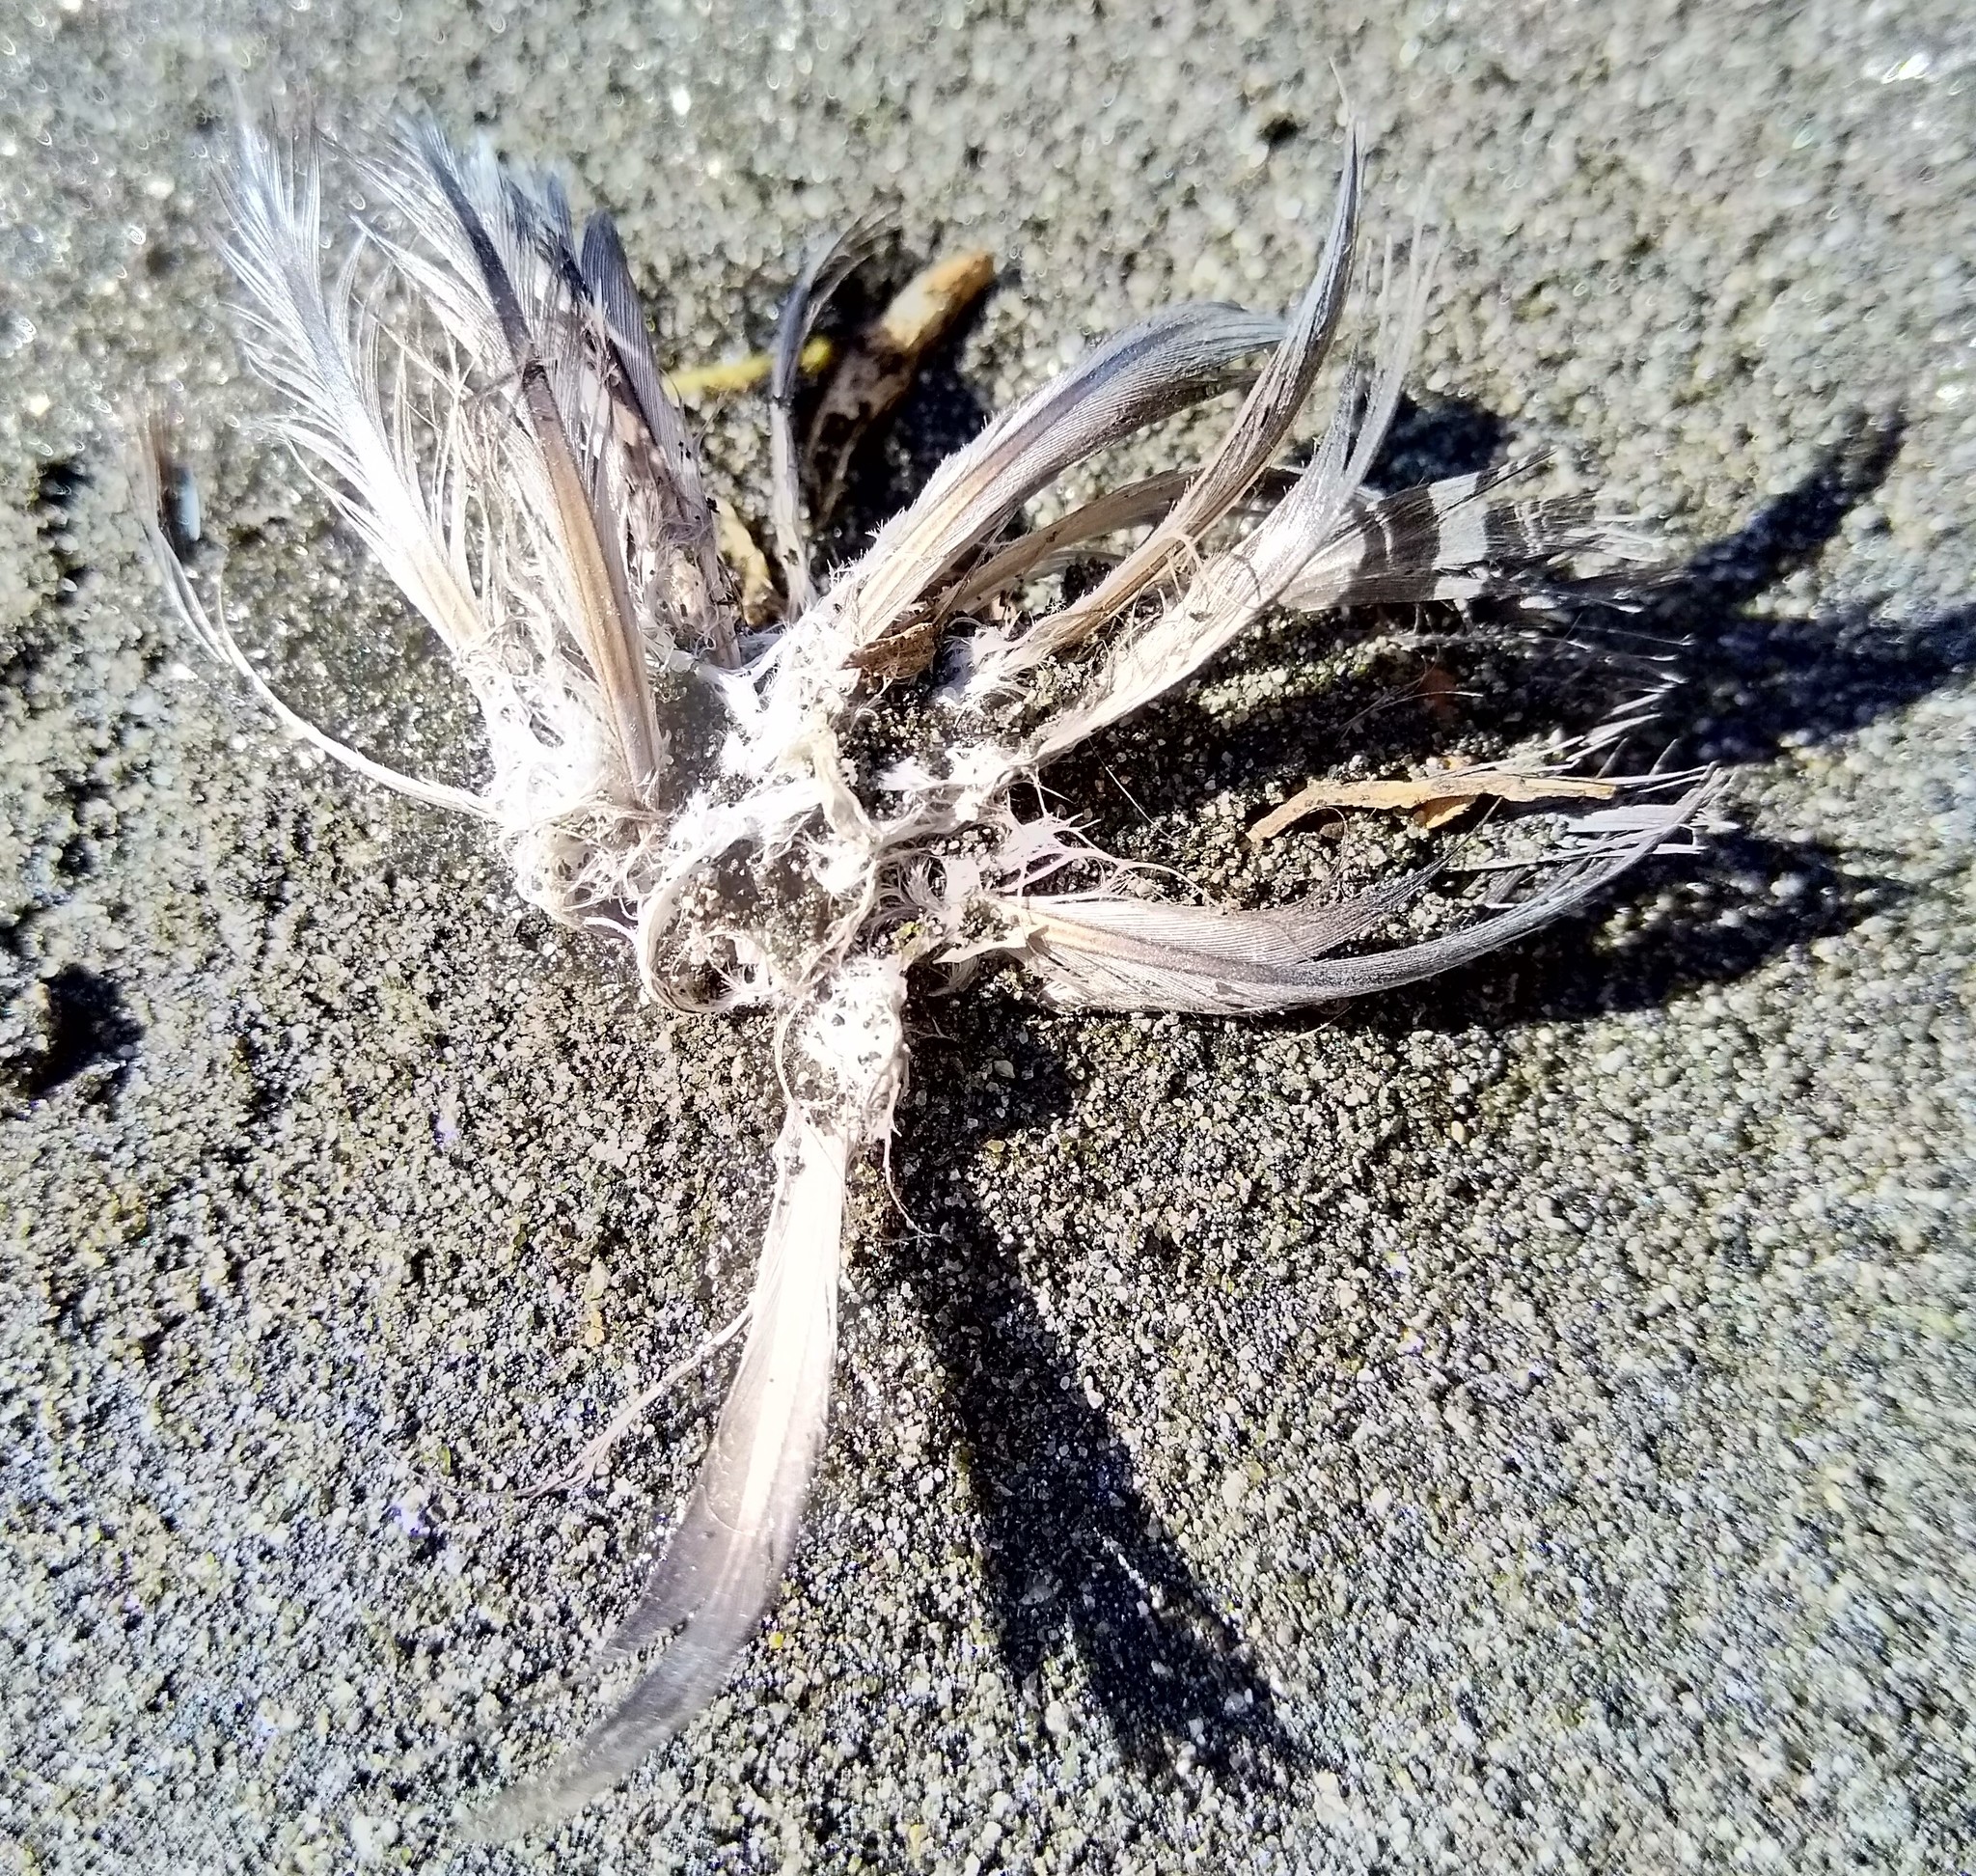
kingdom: Animalia
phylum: Chordata
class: Aves
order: Sphenisciformes
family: Spheniscidae
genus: Eudyptula
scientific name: Eudyptula minor
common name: Little penguin
